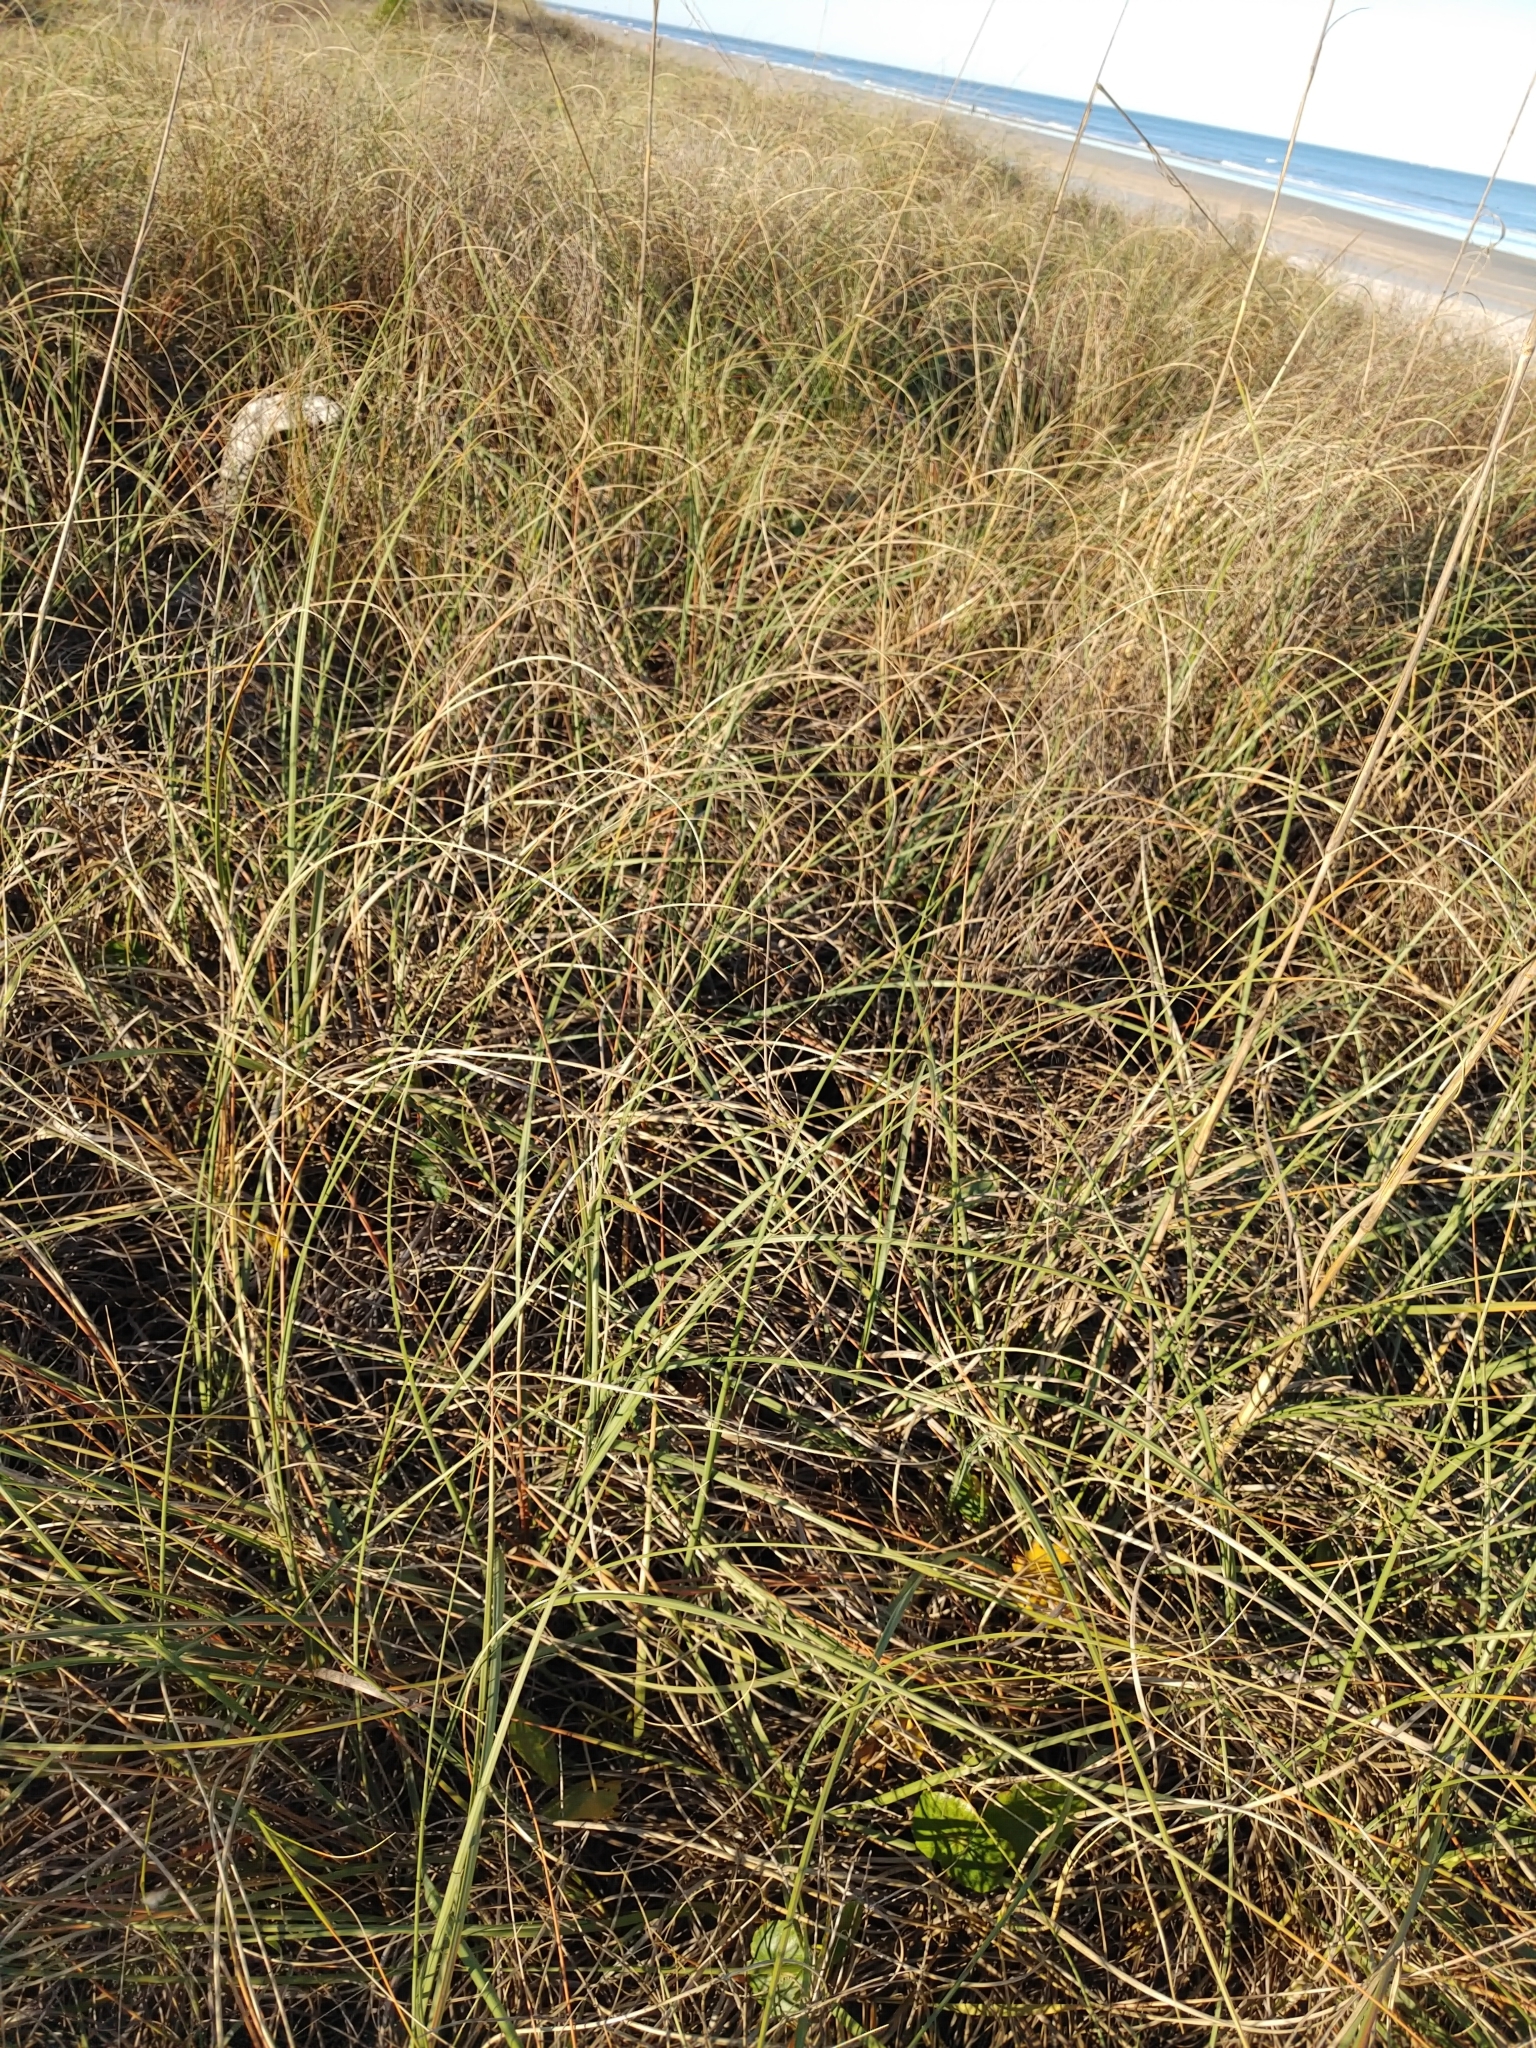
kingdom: Plantae
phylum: Tracheophyta
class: Liliopsida
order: Poales
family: Poaceae
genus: Uniola
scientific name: Uniola paniculata
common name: Seaside-oats
